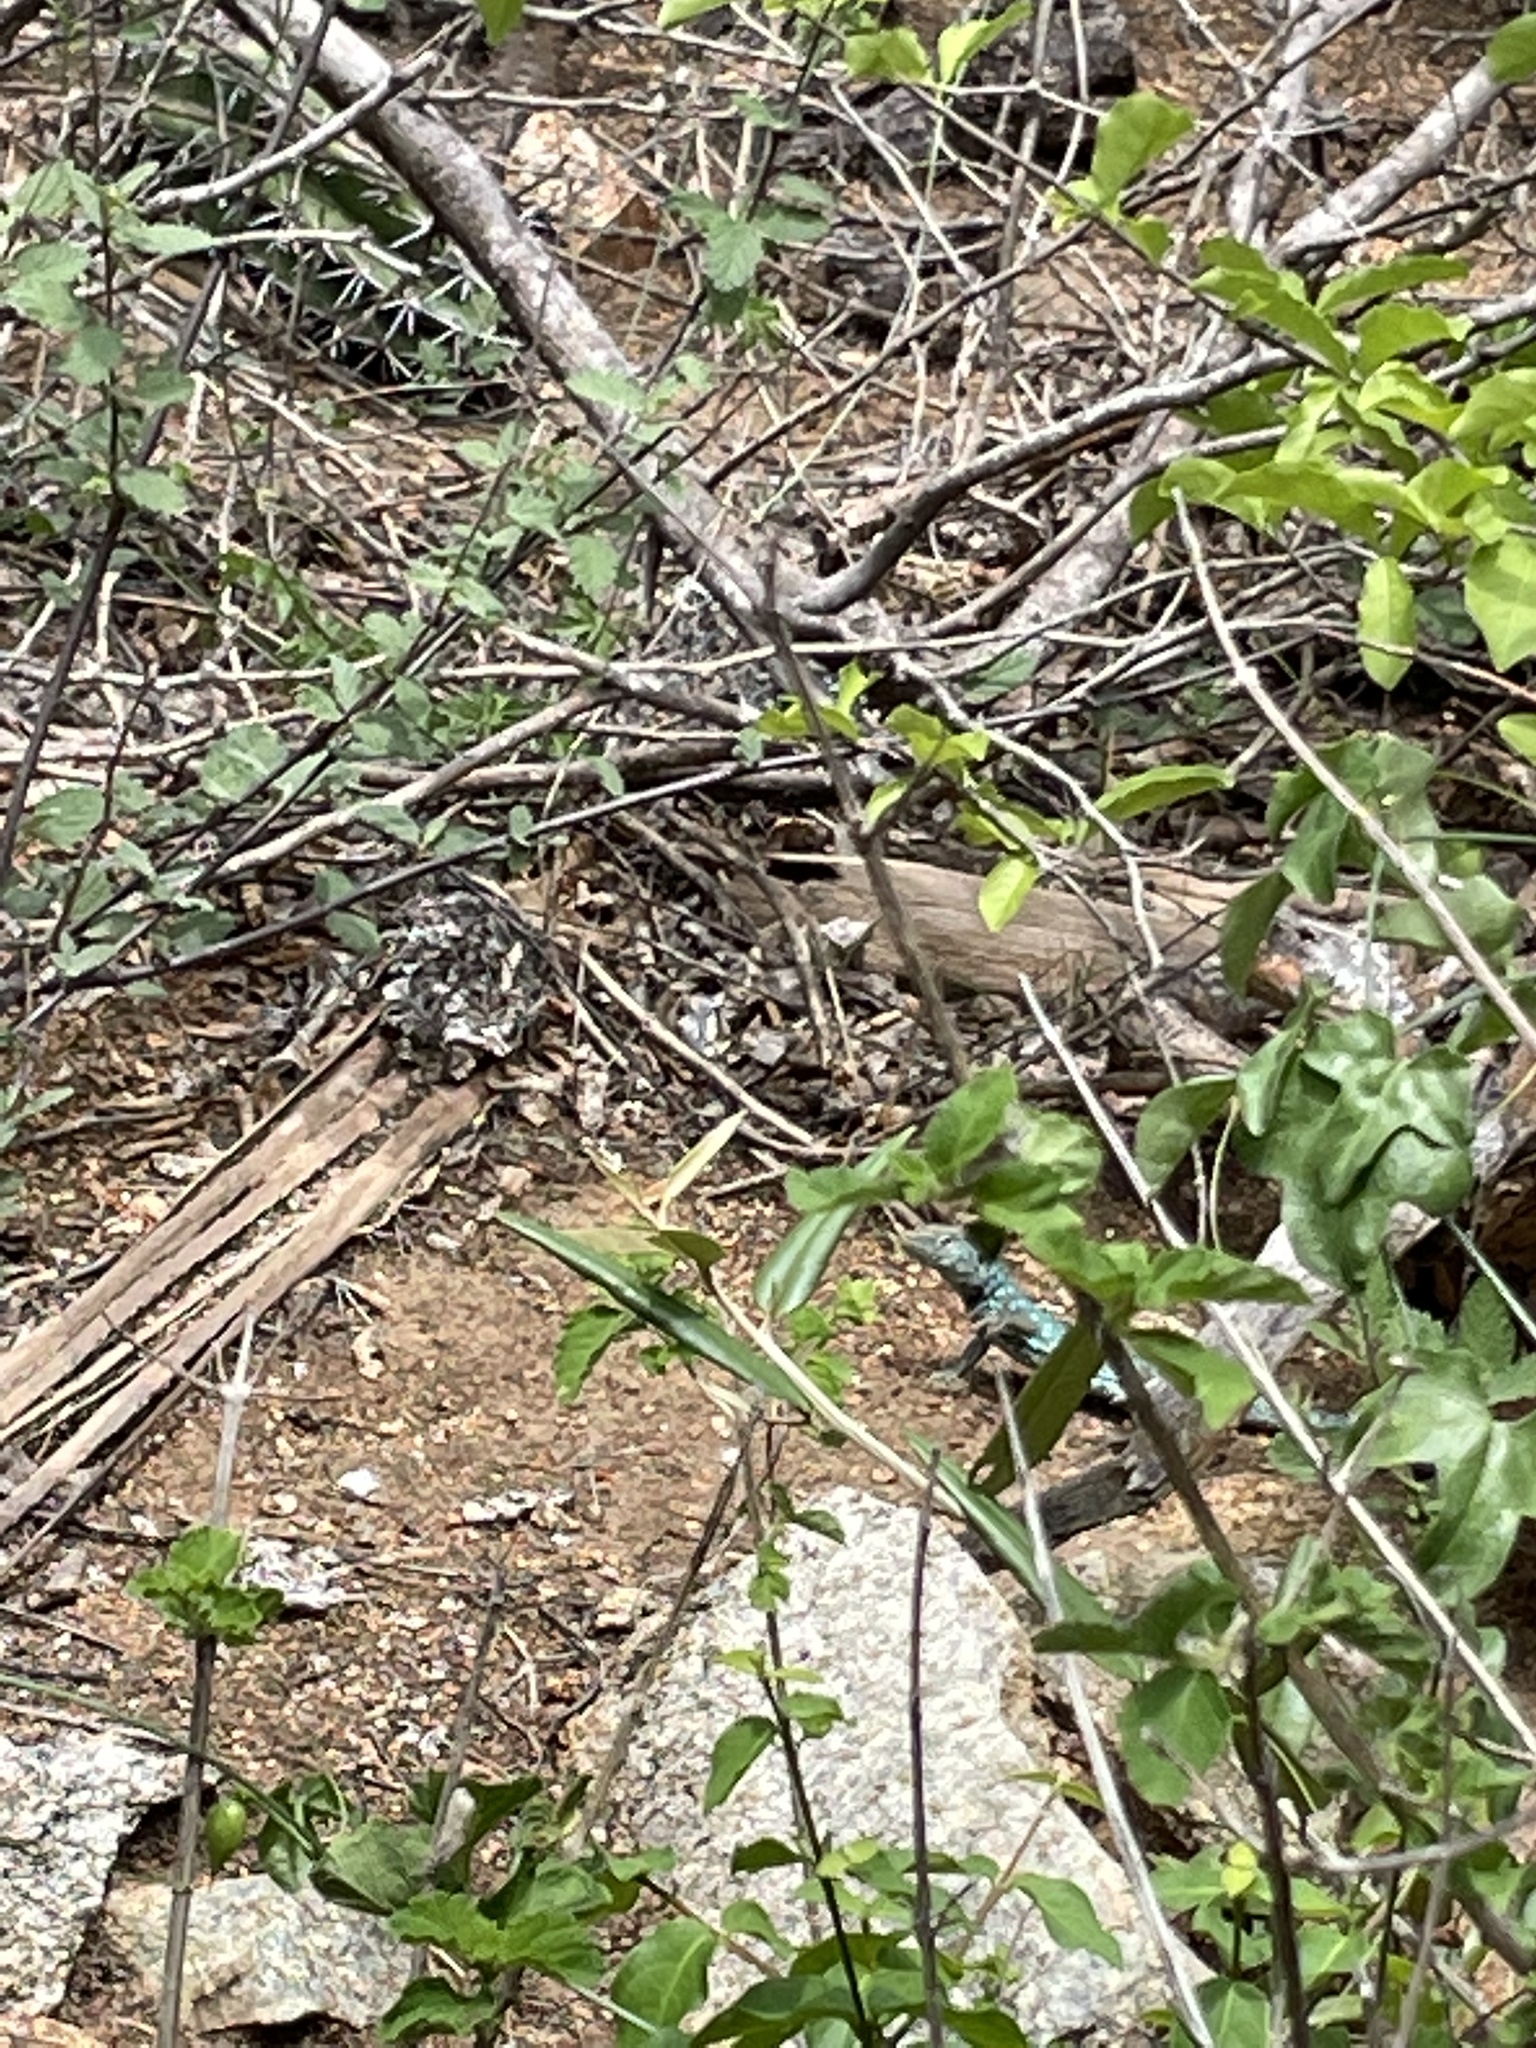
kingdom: Animalia
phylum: Chordata
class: Squamata
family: Teiidae
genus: Cnemidophorus
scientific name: Cnemidophorus arubensis
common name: Aruba whiptail
